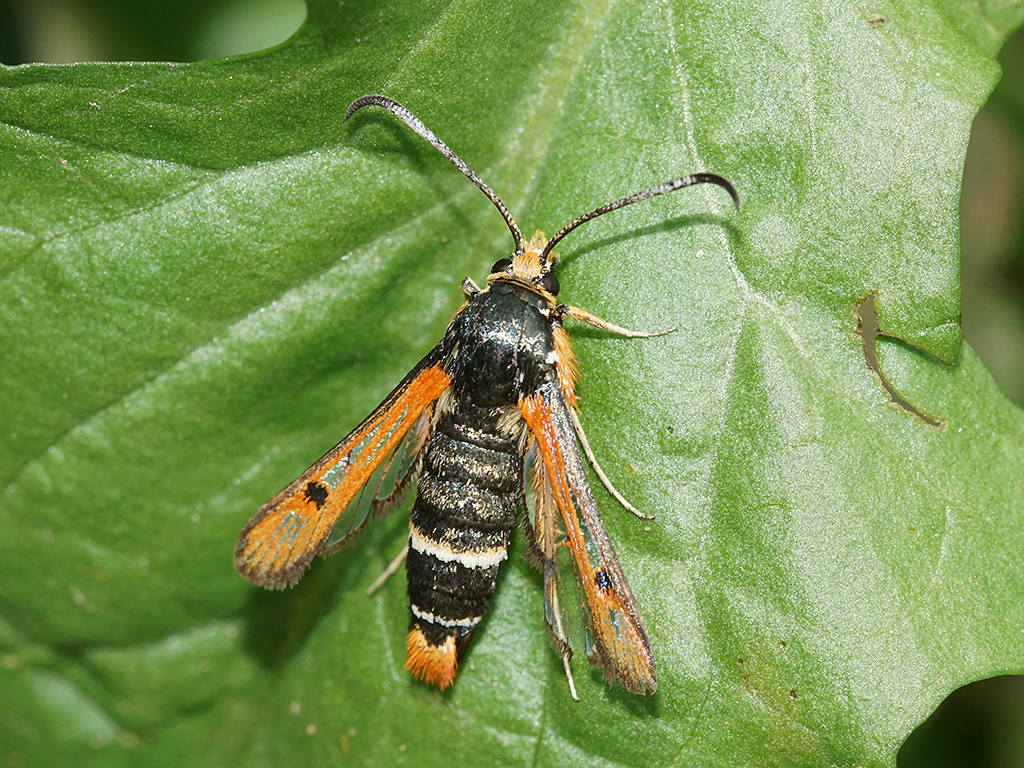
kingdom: Animalia
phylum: Arthropoda
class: Insecta
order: Lepidoptera
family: Sesiidae
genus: Pyropteron
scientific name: Pyropteron chrysidiforme
